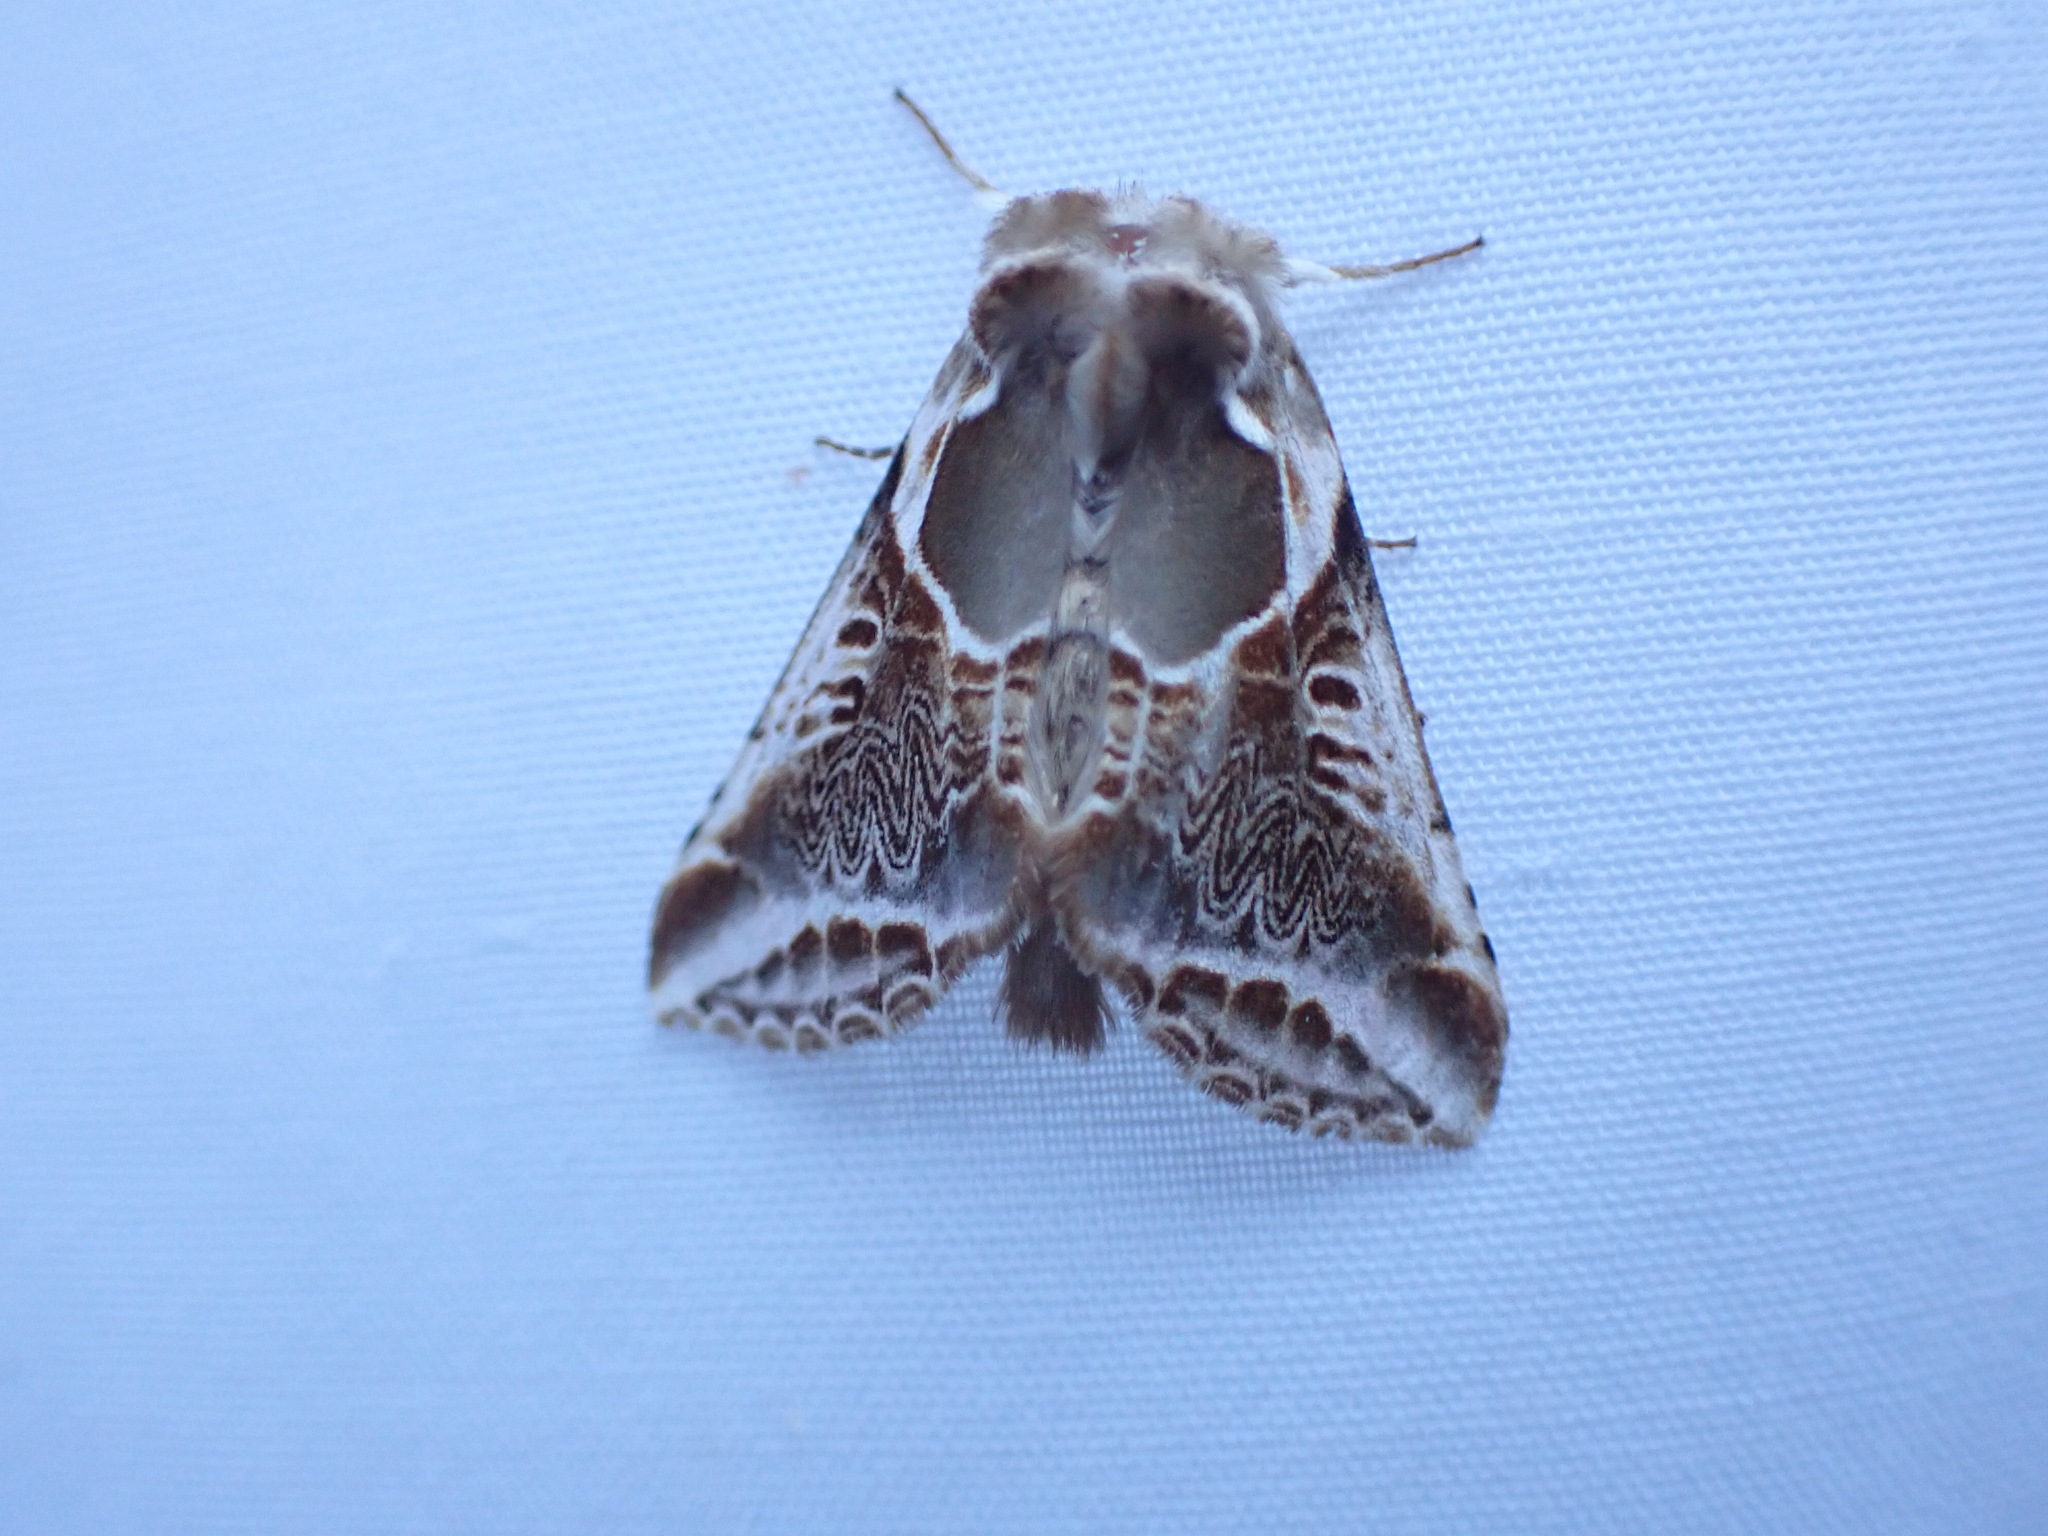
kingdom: Animalia
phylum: Arthropoda
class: Insecta
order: Lepidoptera
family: Drepanidae
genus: Habrosyne
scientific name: Habrosyne scripta
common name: Lettered habrosyne moth
